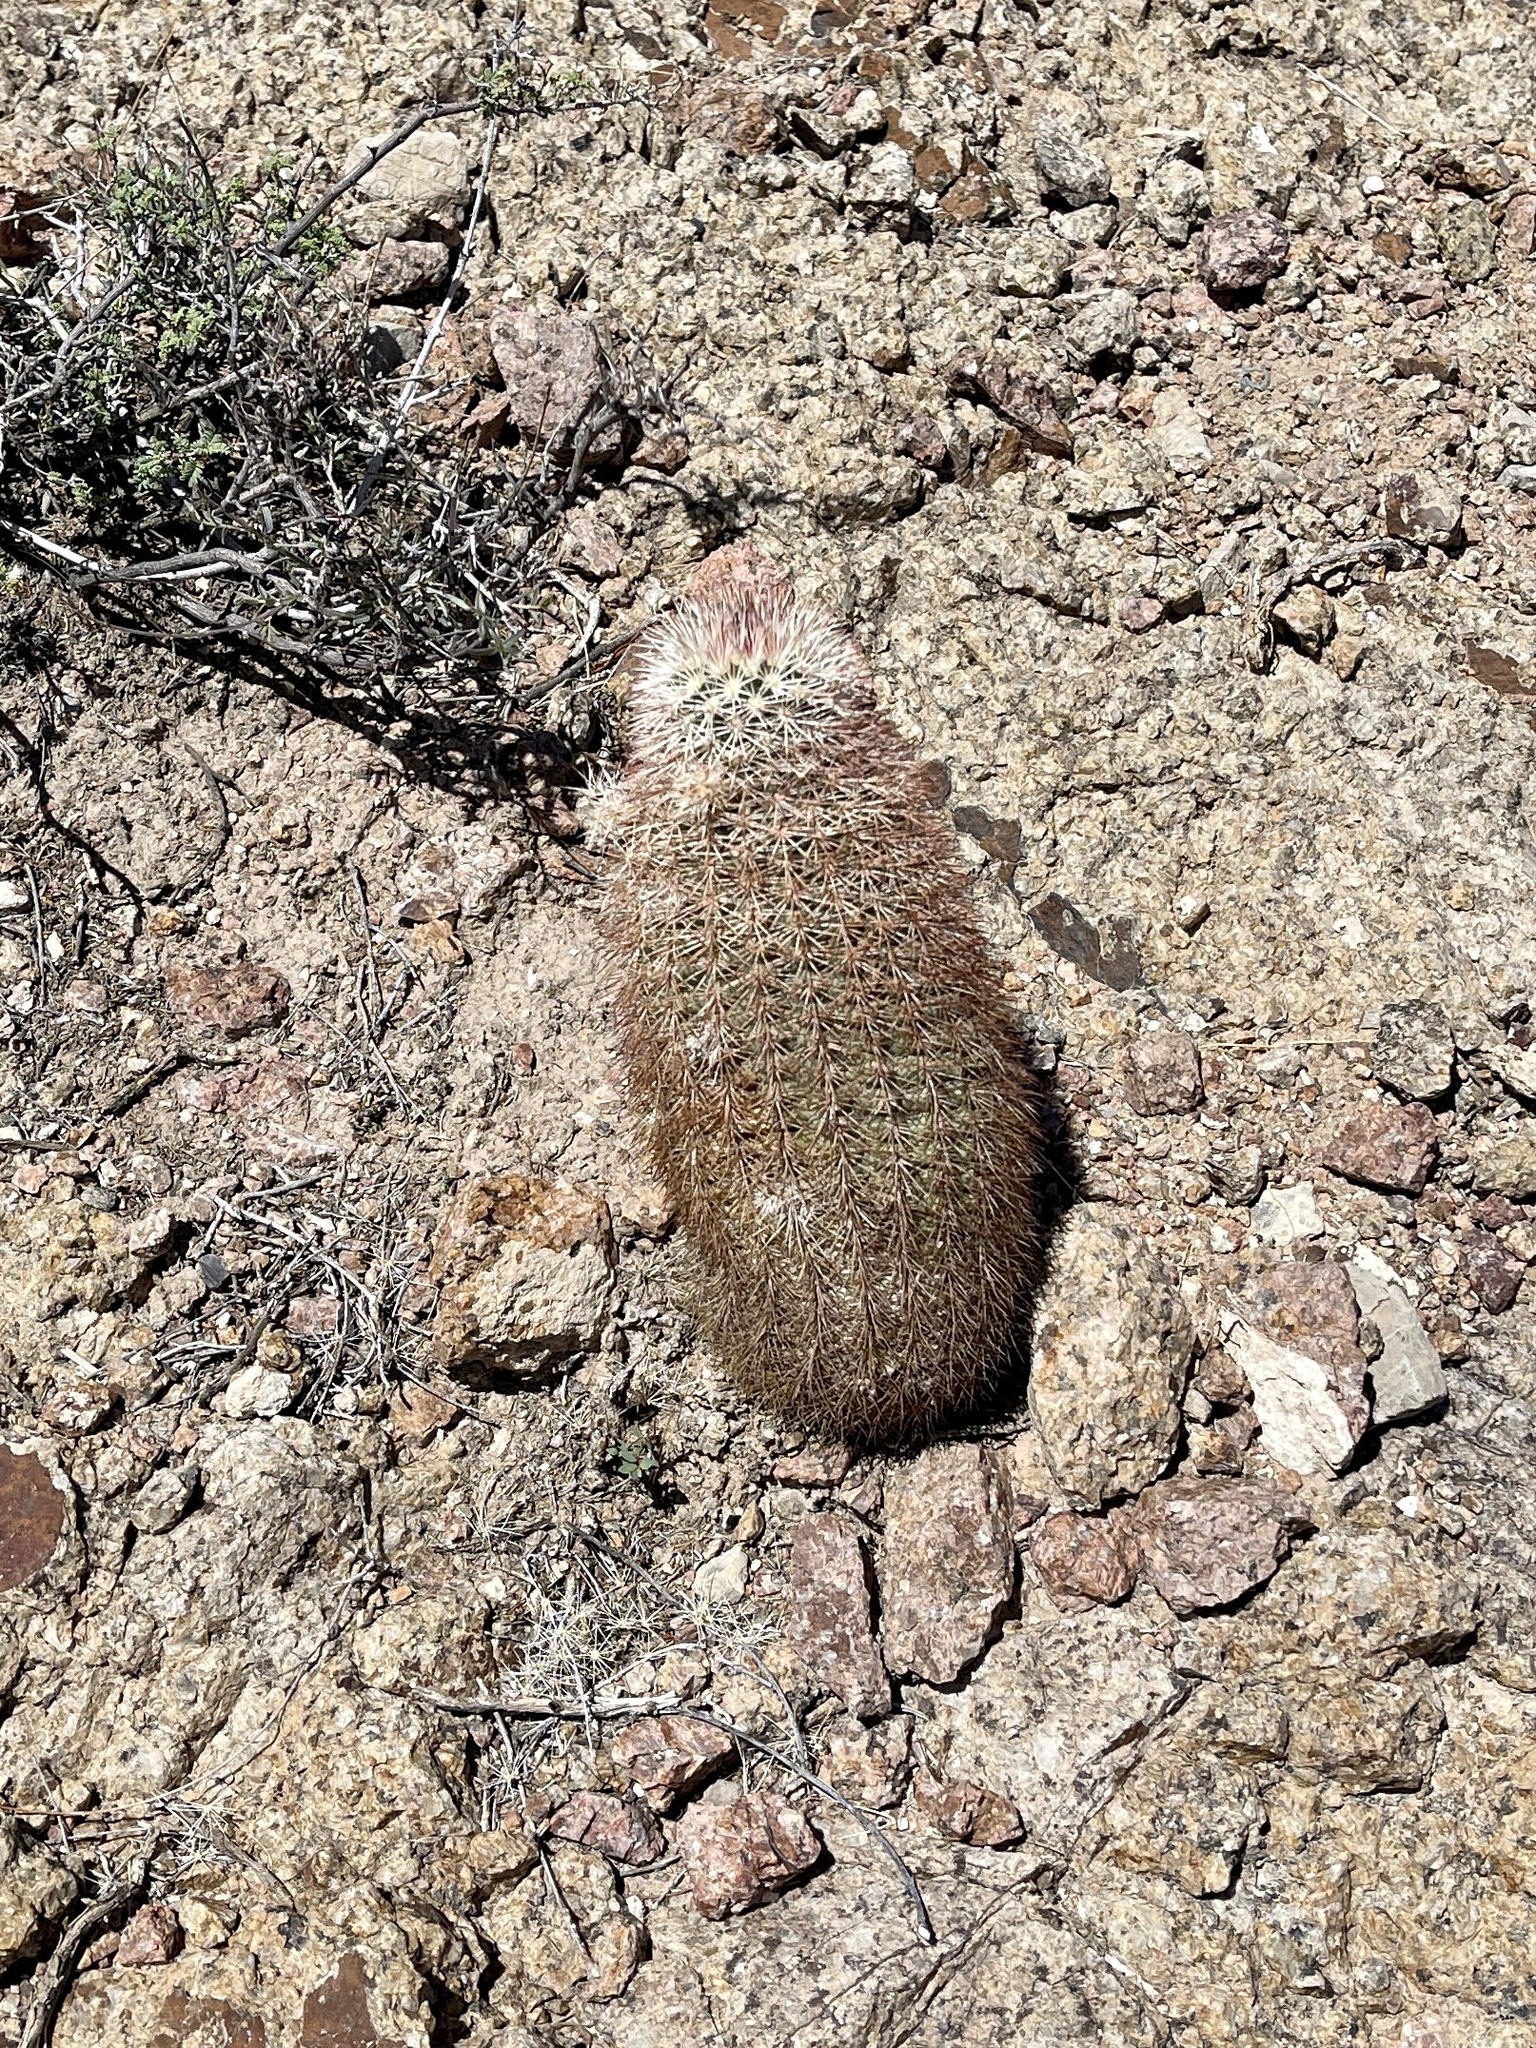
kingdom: Plantae
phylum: Tracheophyta
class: Magnoliopsida
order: Caryophyllales
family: Cactaceae
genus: Echinocereus
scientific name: Echinocereus dasyacanthus
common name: Spiny hedgehog cactus
